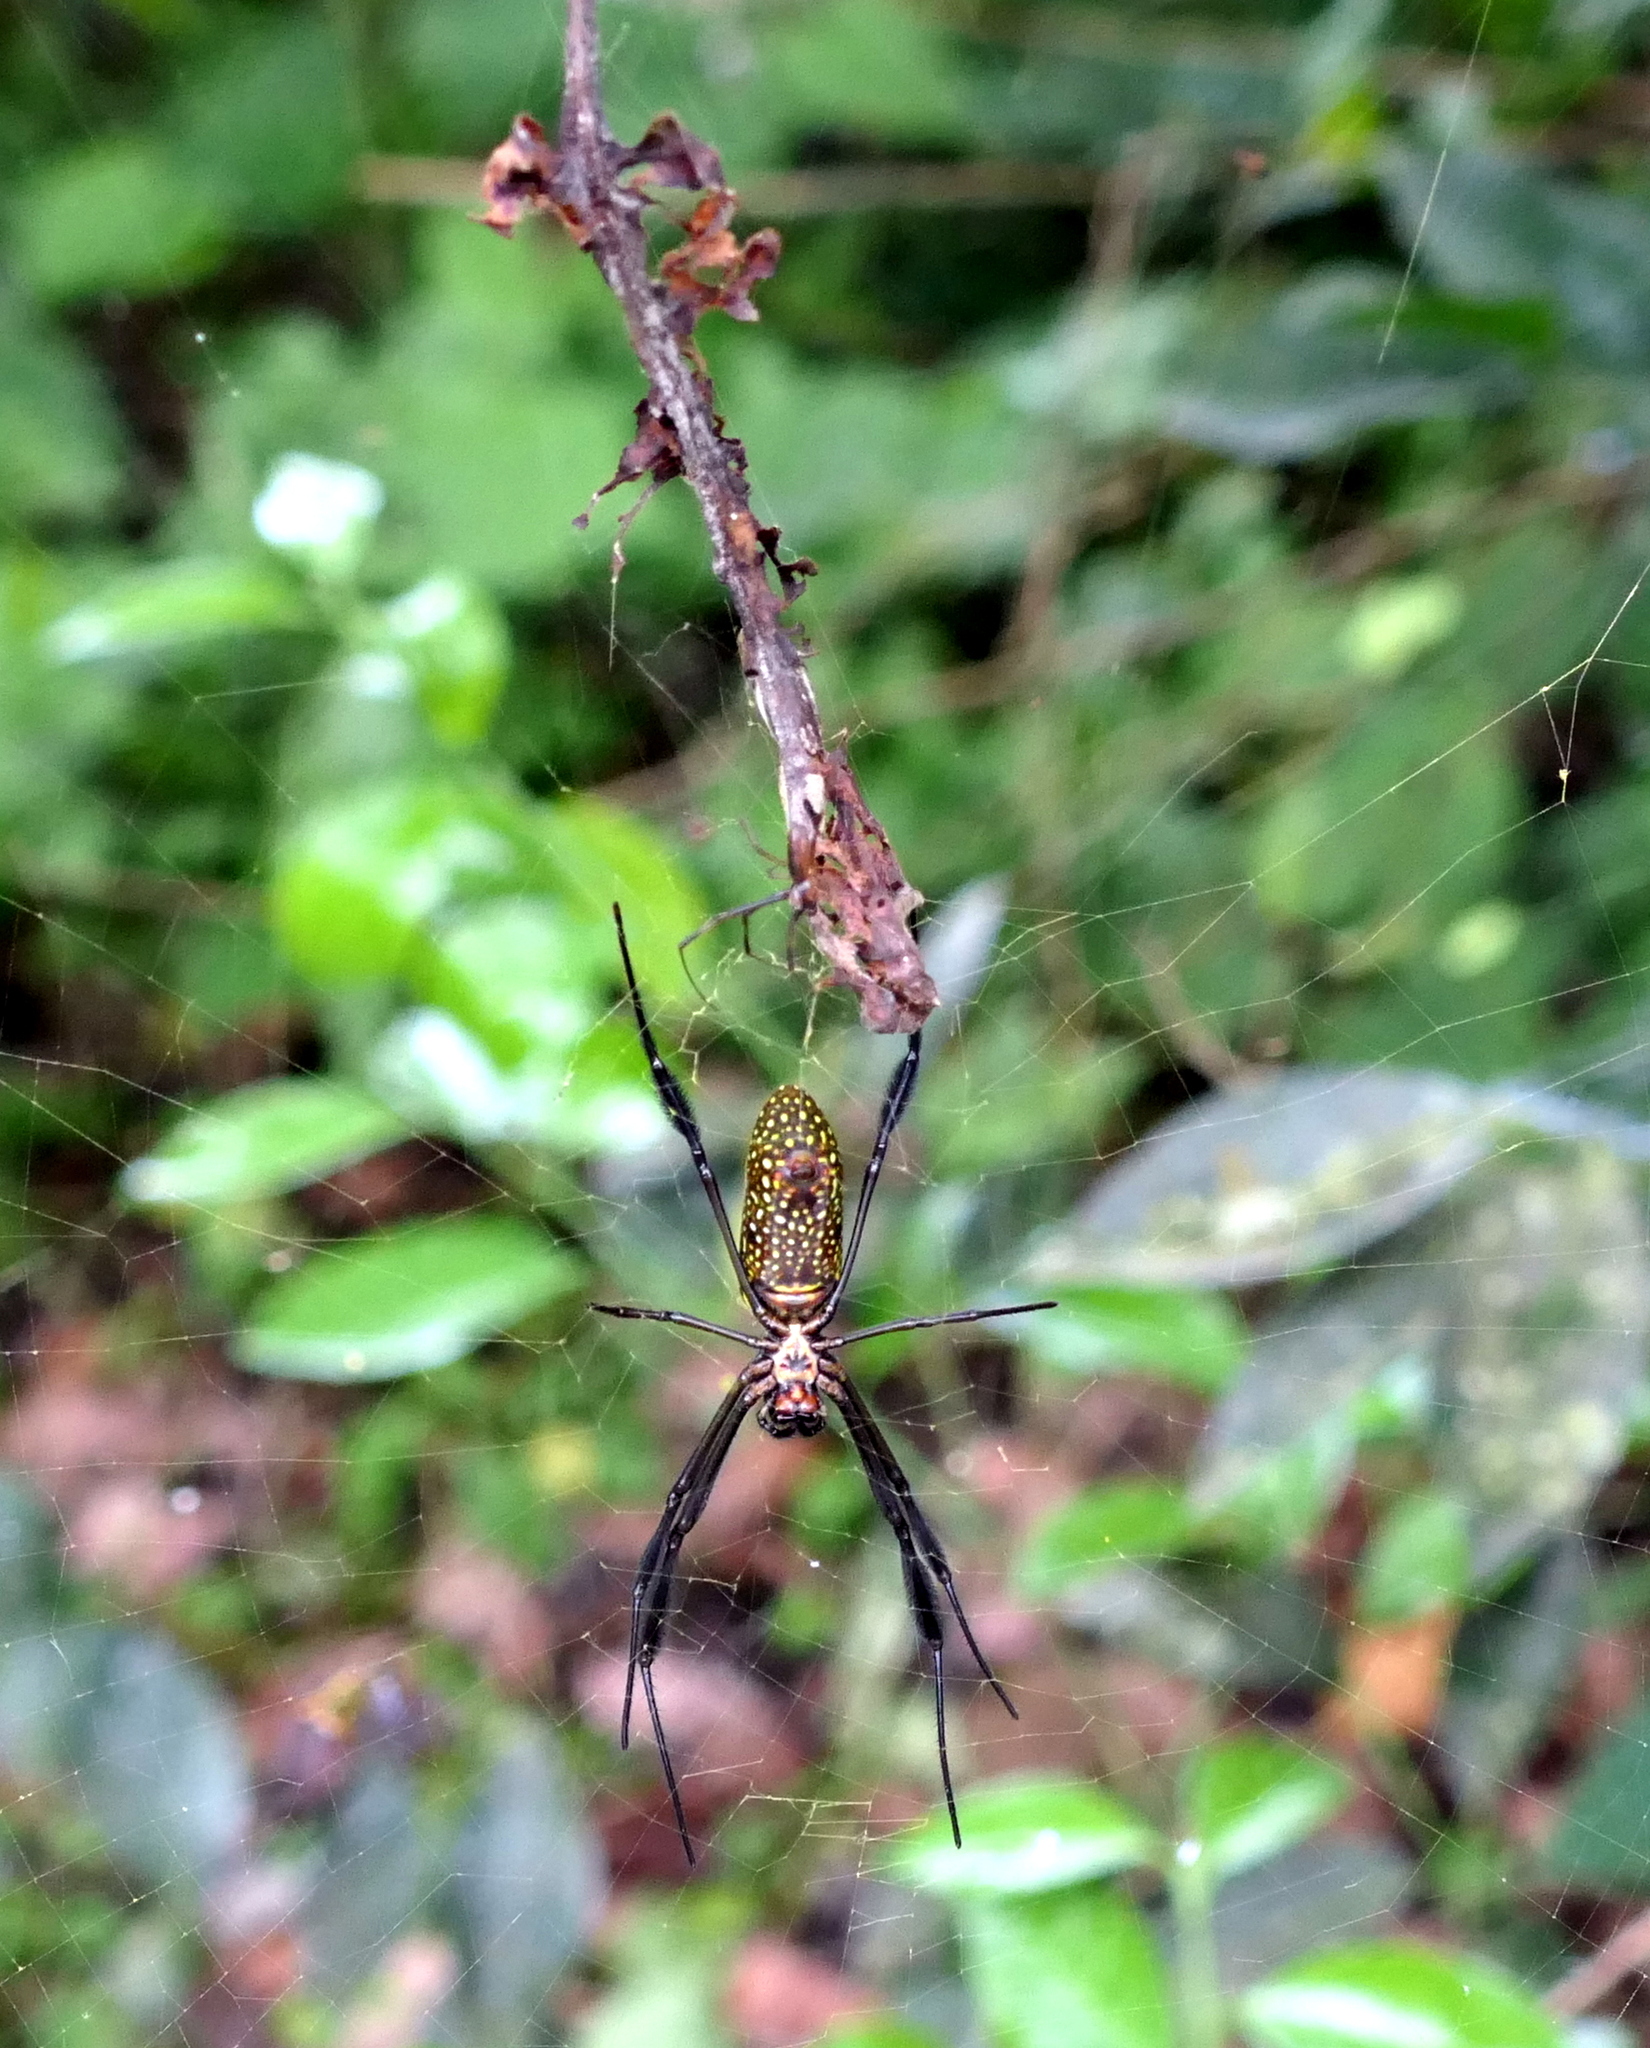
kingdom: Animalia
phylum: Arthropoda
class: Arachnida
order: Araneae
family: Araneidae
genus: Trichonephila
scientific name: Trichonephila clavipes
